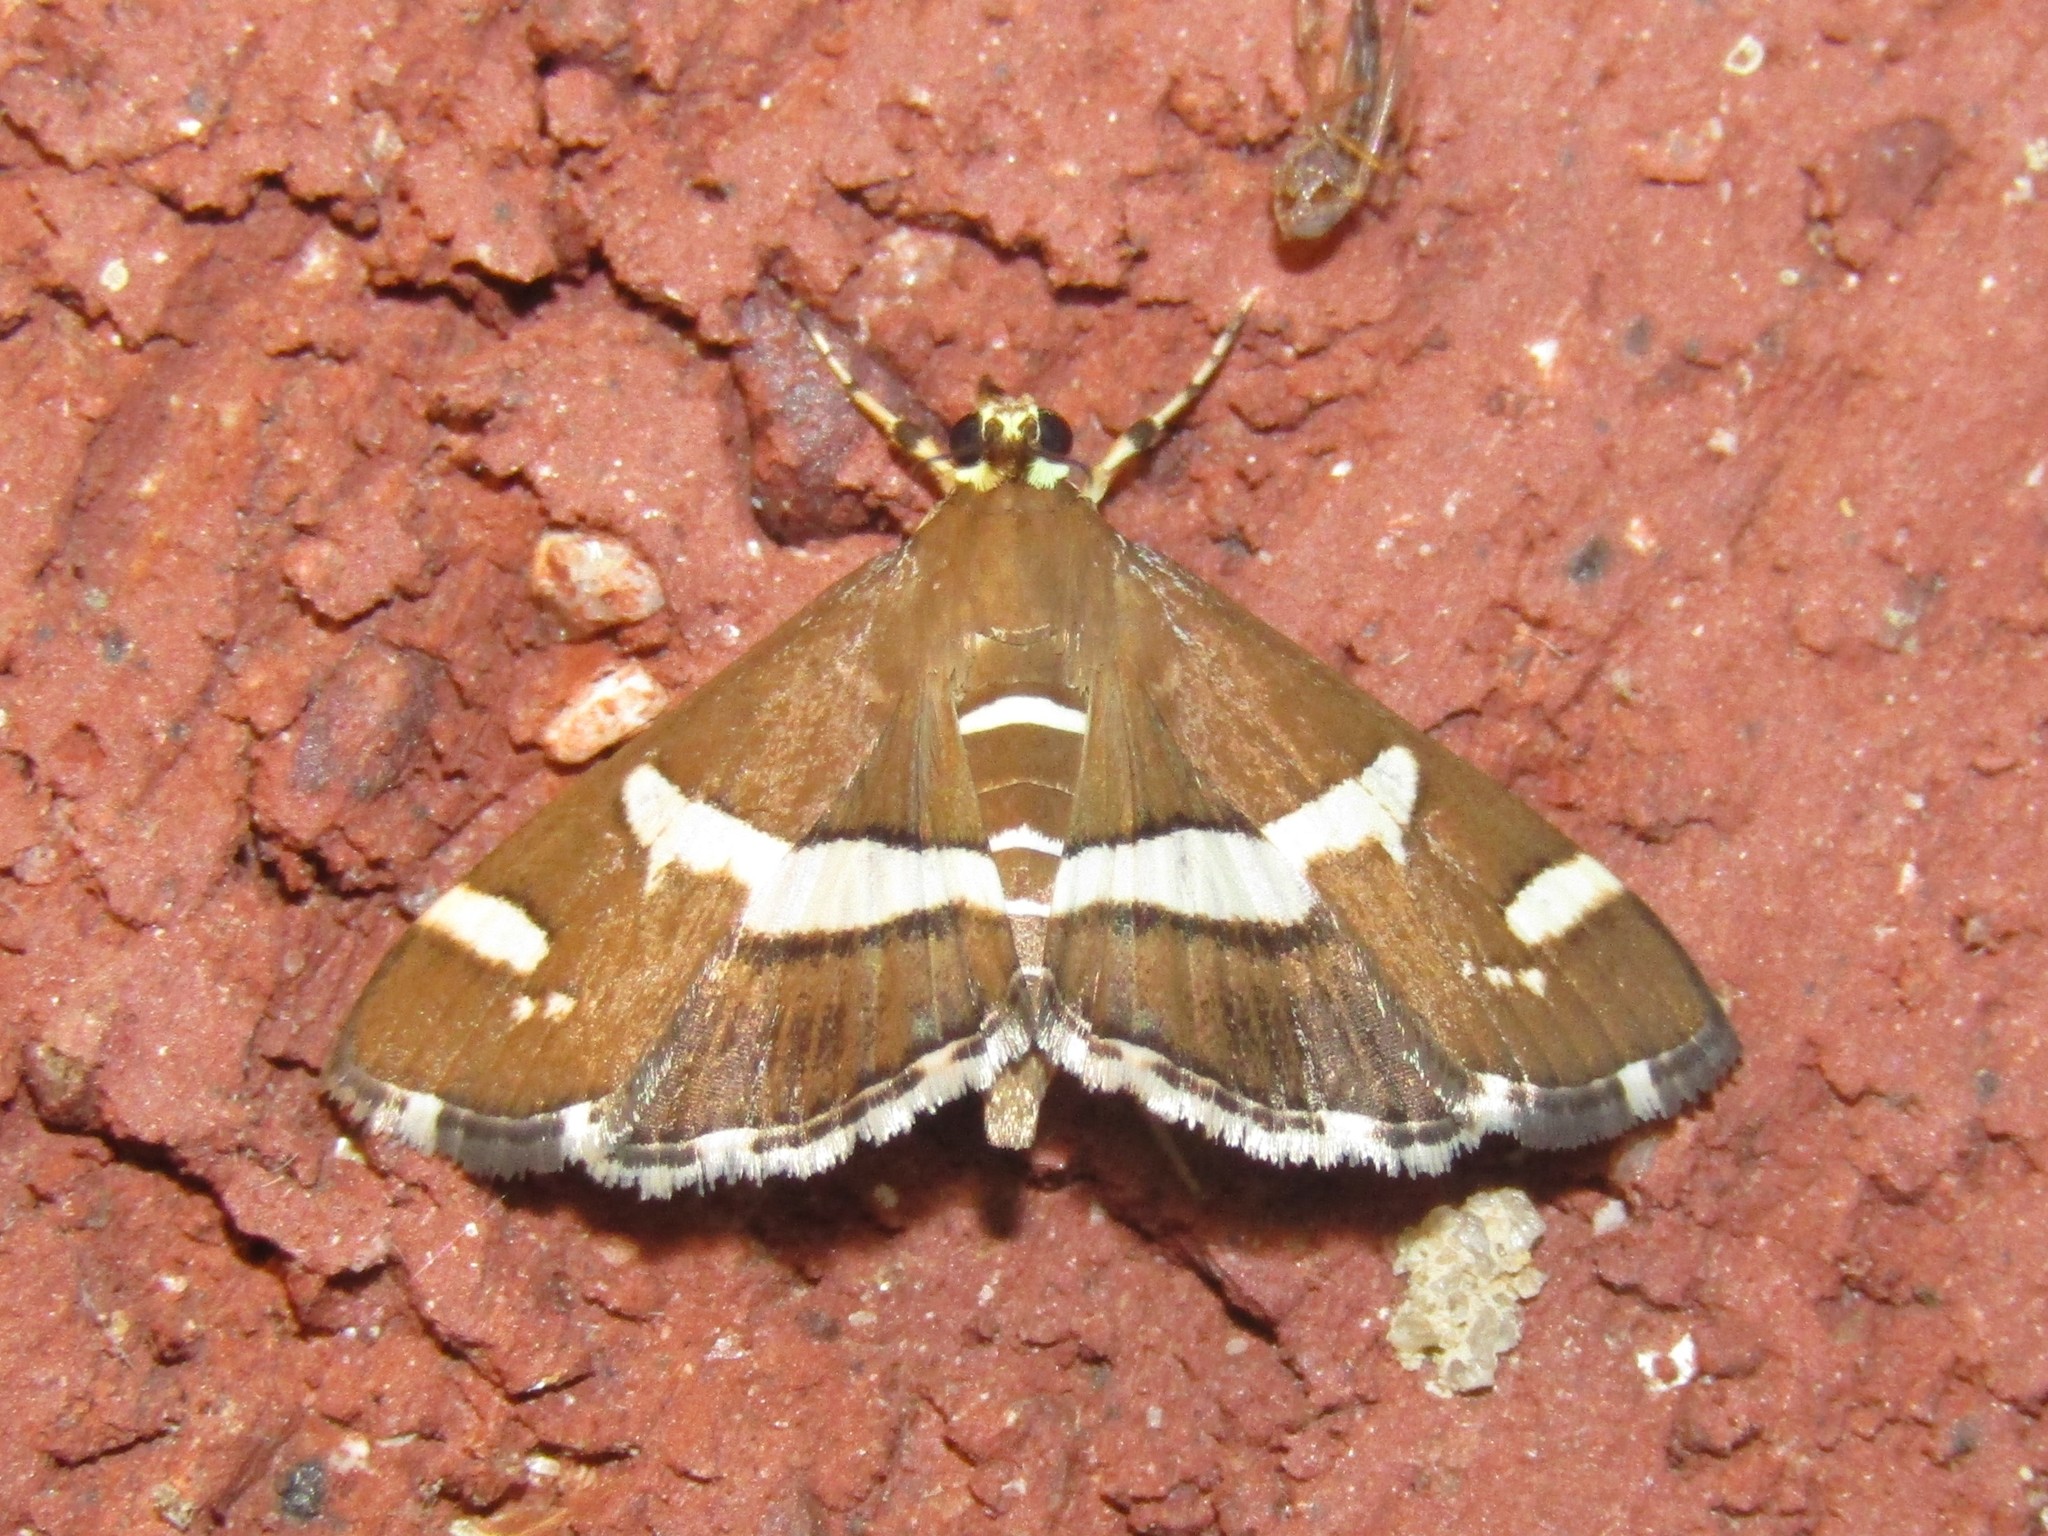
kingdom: Animalia
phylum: Arthropoda
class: Insecta
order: Lepidoptera
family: Crambidae
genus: Spoladea
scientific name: Spoladea recurvalis
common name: Beet webworm moth
